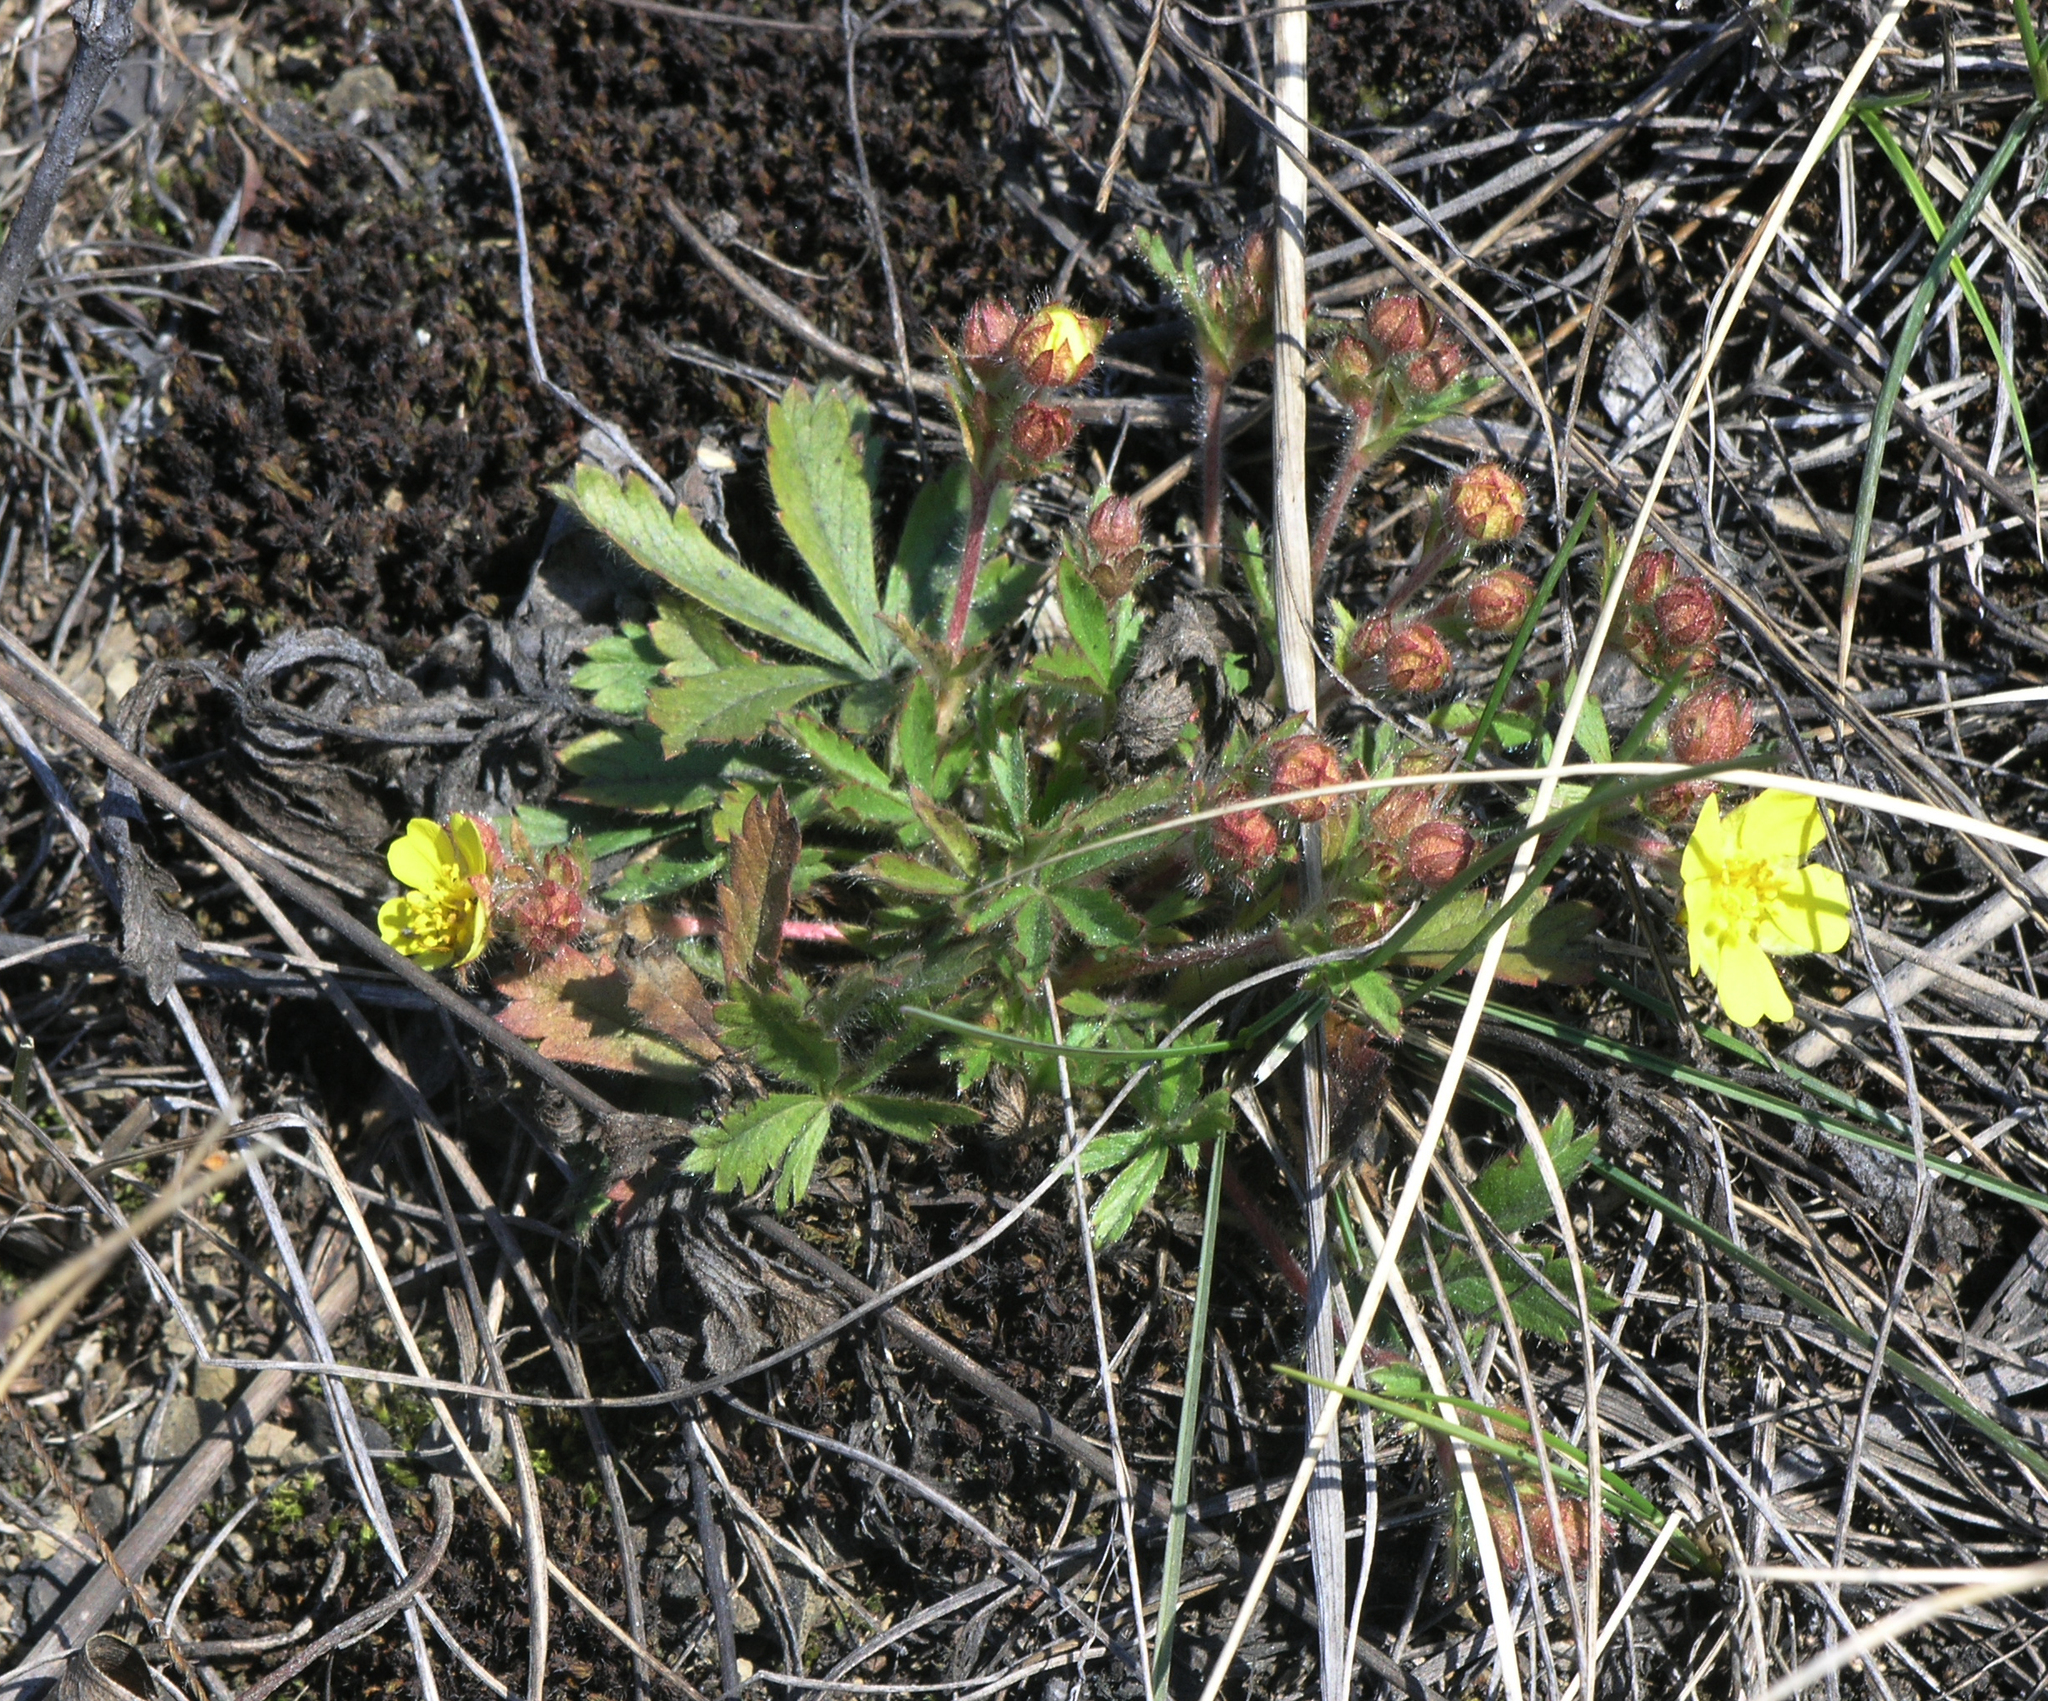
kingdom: Plantae
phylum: Tracheophyta
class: Magnoliopsida
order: Rosales
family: Rosaceae
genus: Potentilla
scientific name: Potentilla humifusa
